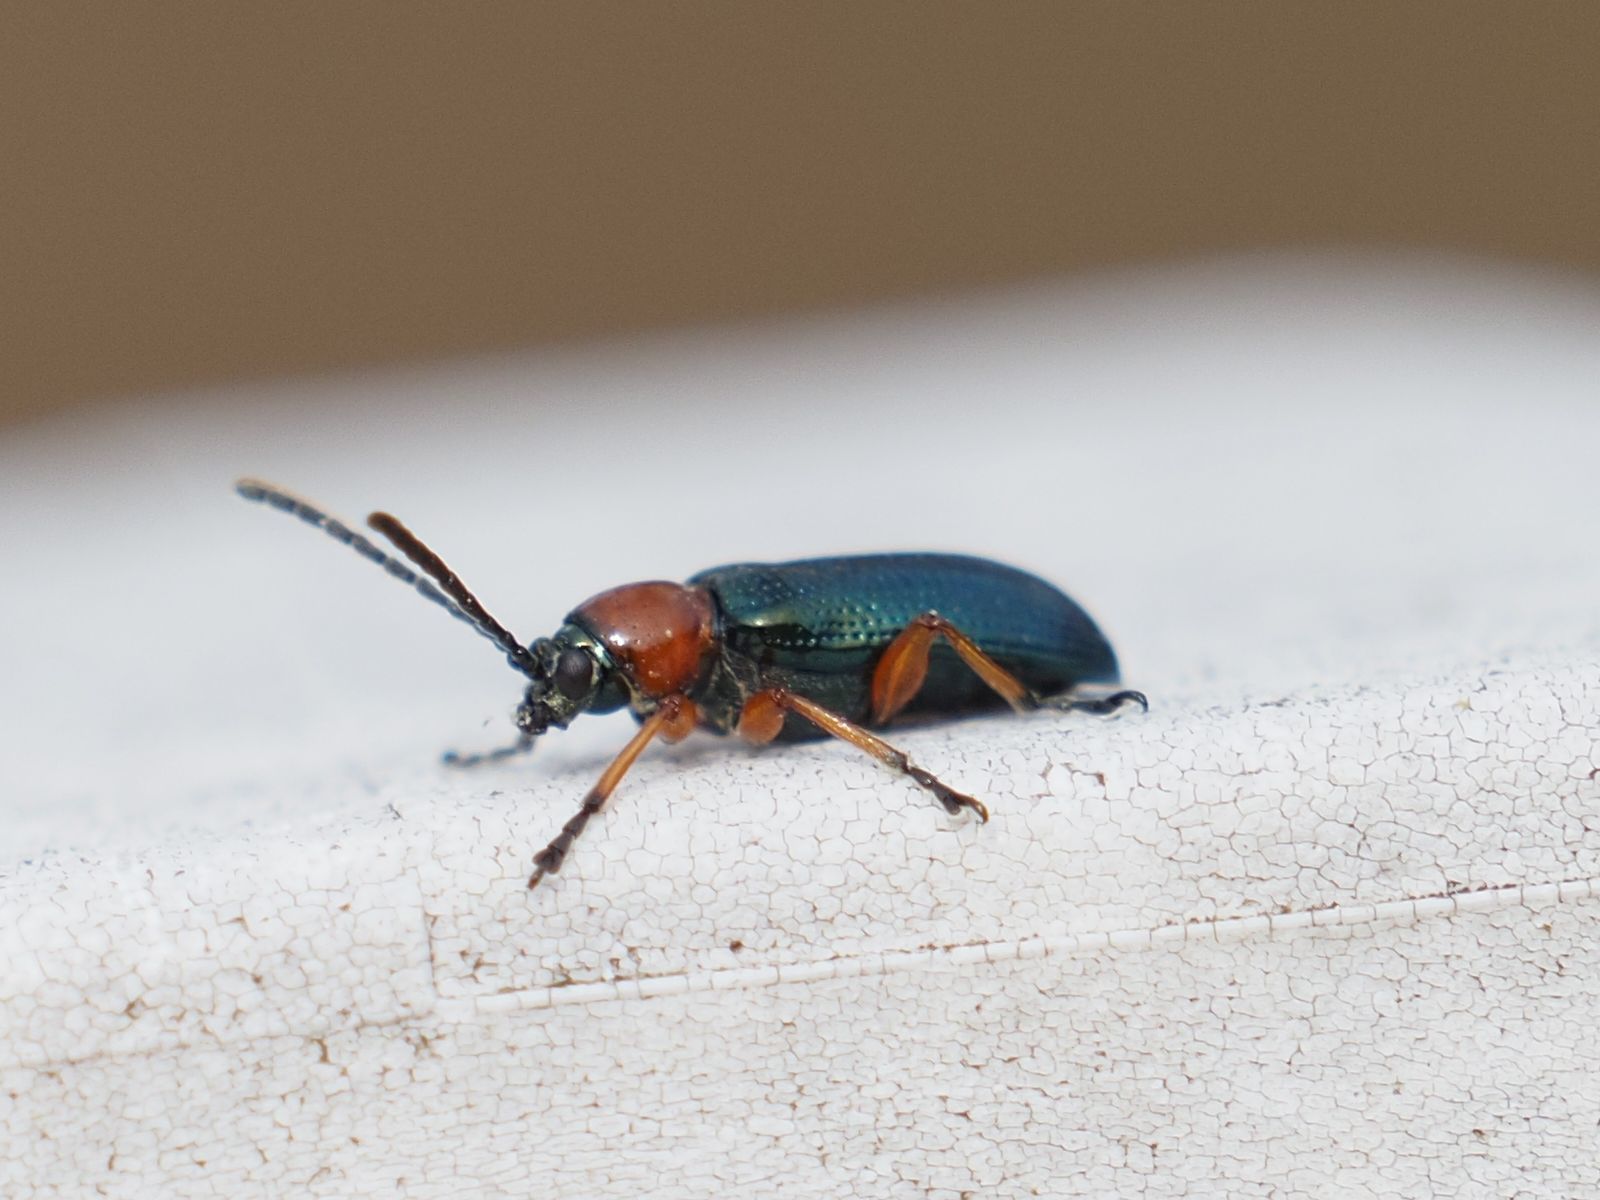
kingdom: Animalia
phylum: Arthropoda
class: Insecta
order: Coleoptera
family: Chrysomelidae
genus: Oulema
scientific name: Oulema
